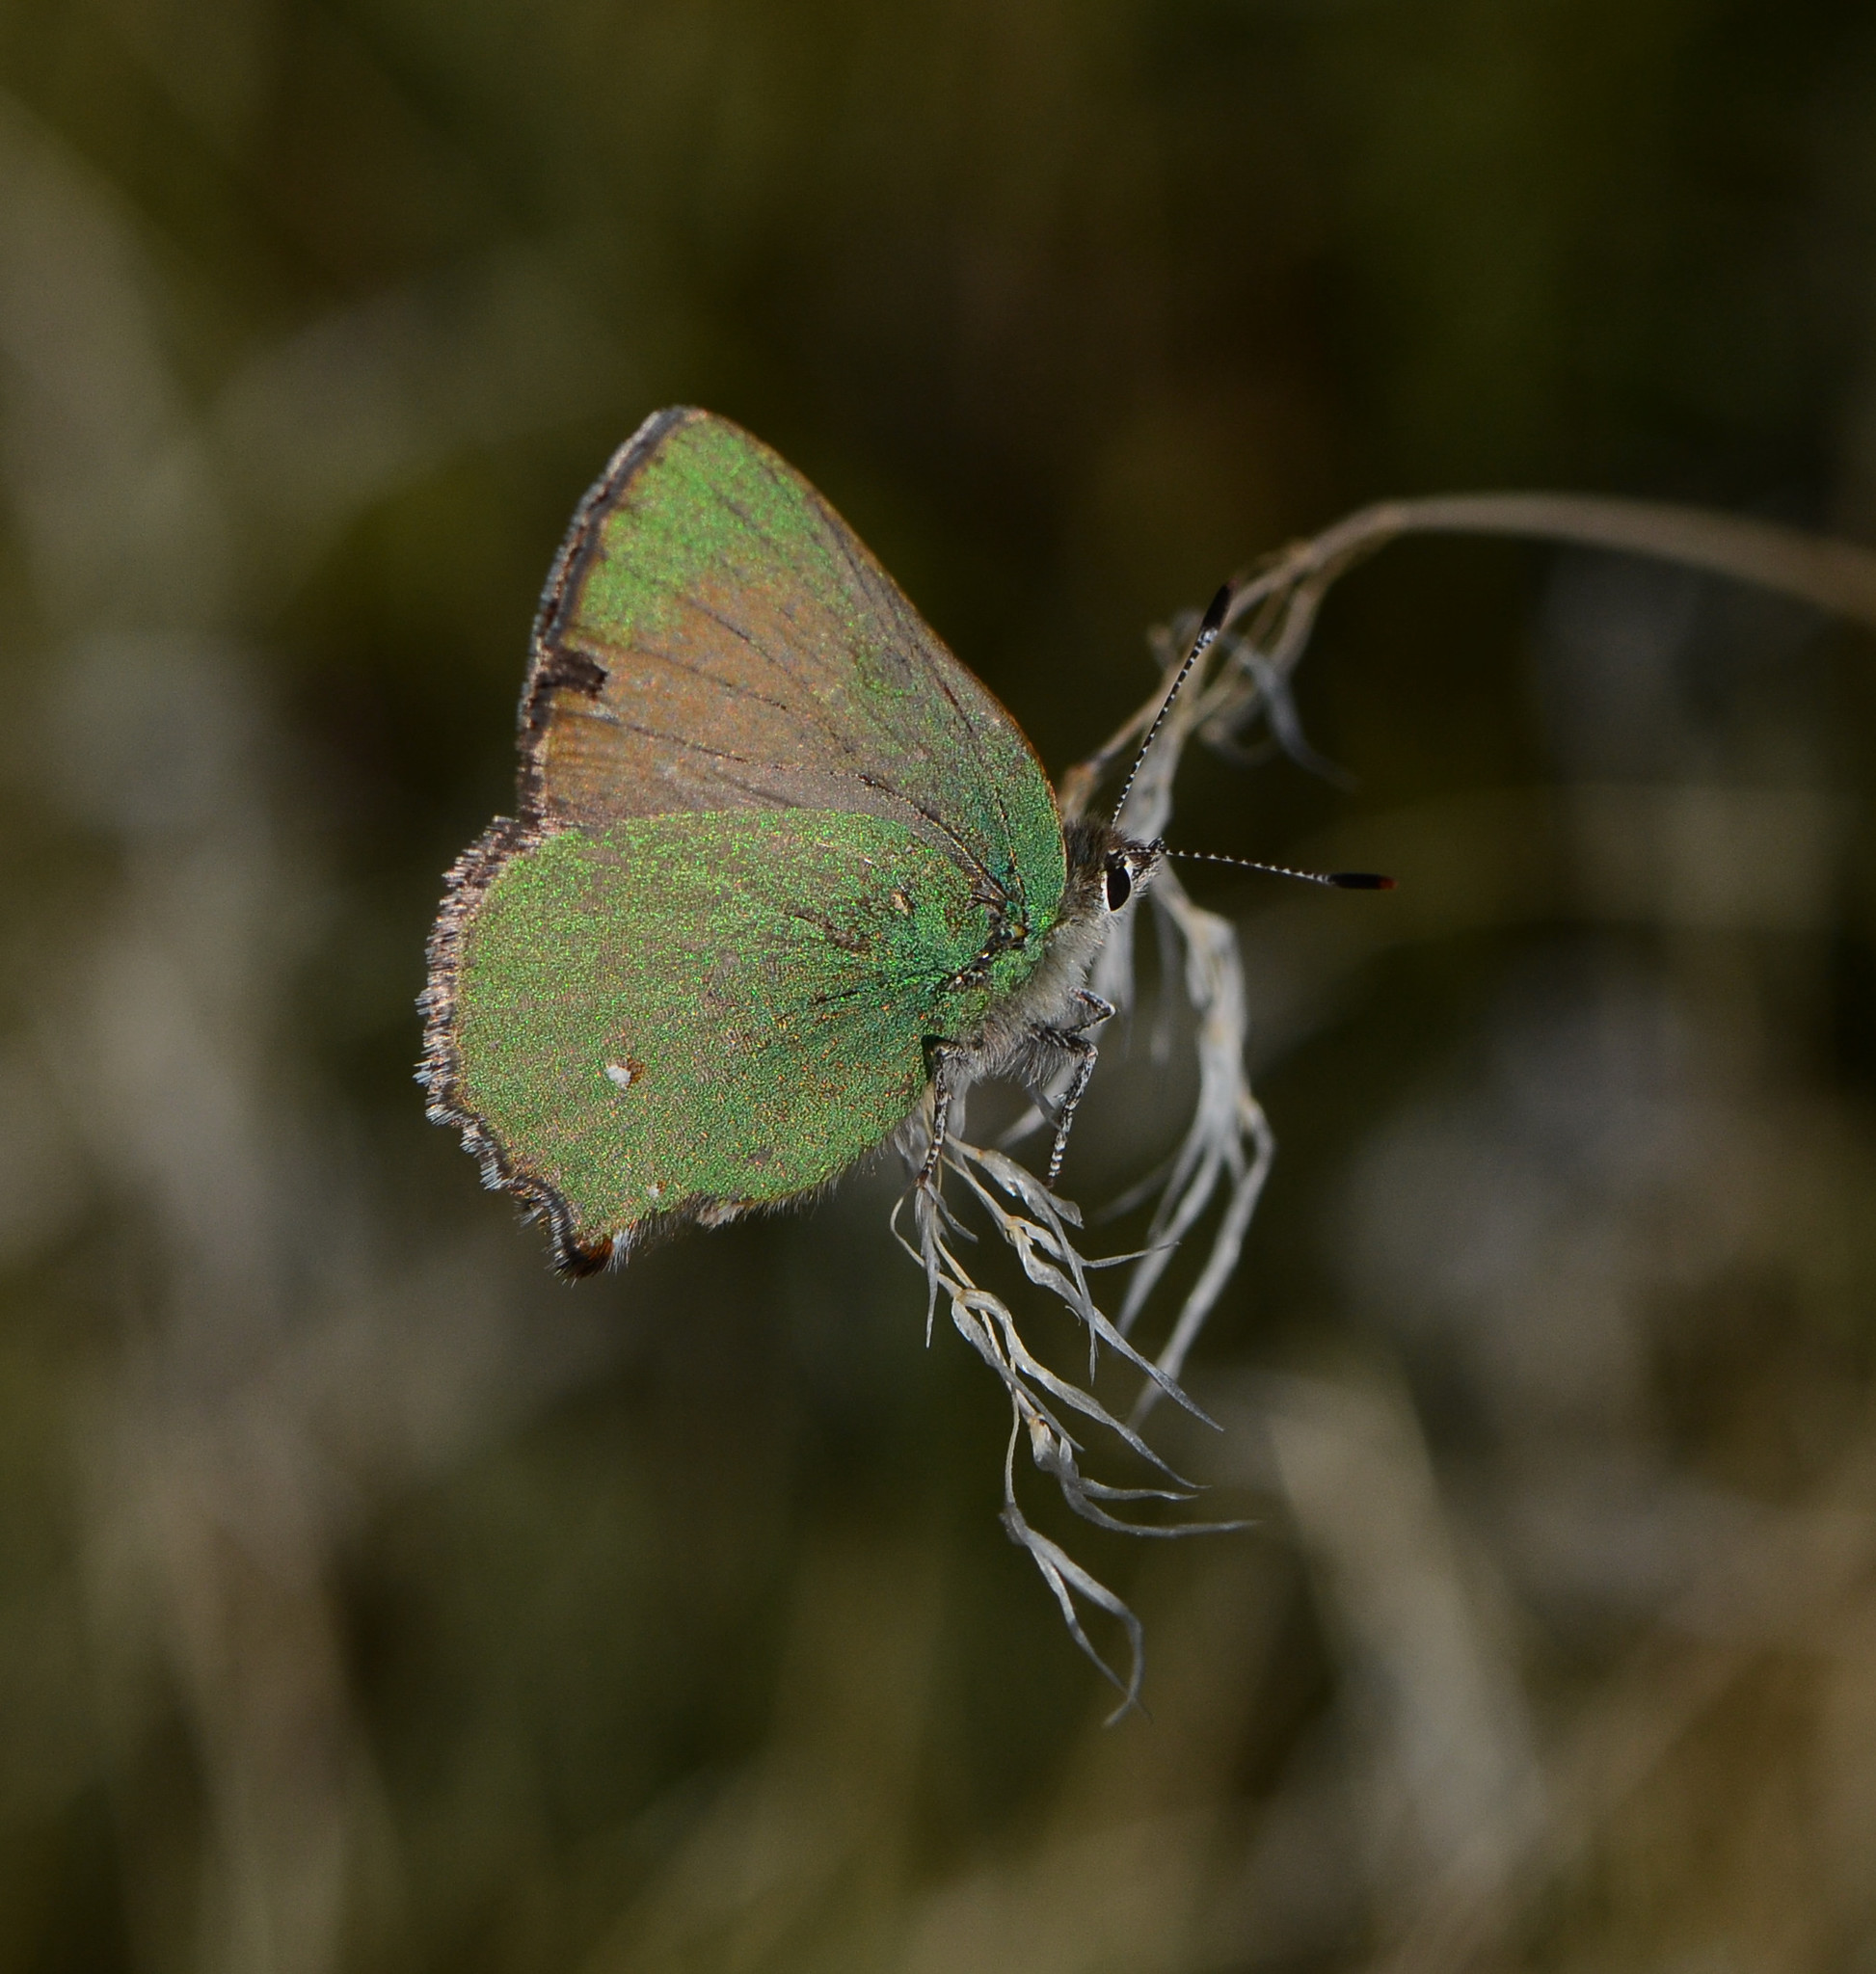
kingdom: Animalia
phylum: Arthropoda
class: Insecta
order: Lepidoptera
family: Lycaenidae
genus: Callophrys
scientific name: Callophrys dumetorum
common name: Bramble hairstreak
